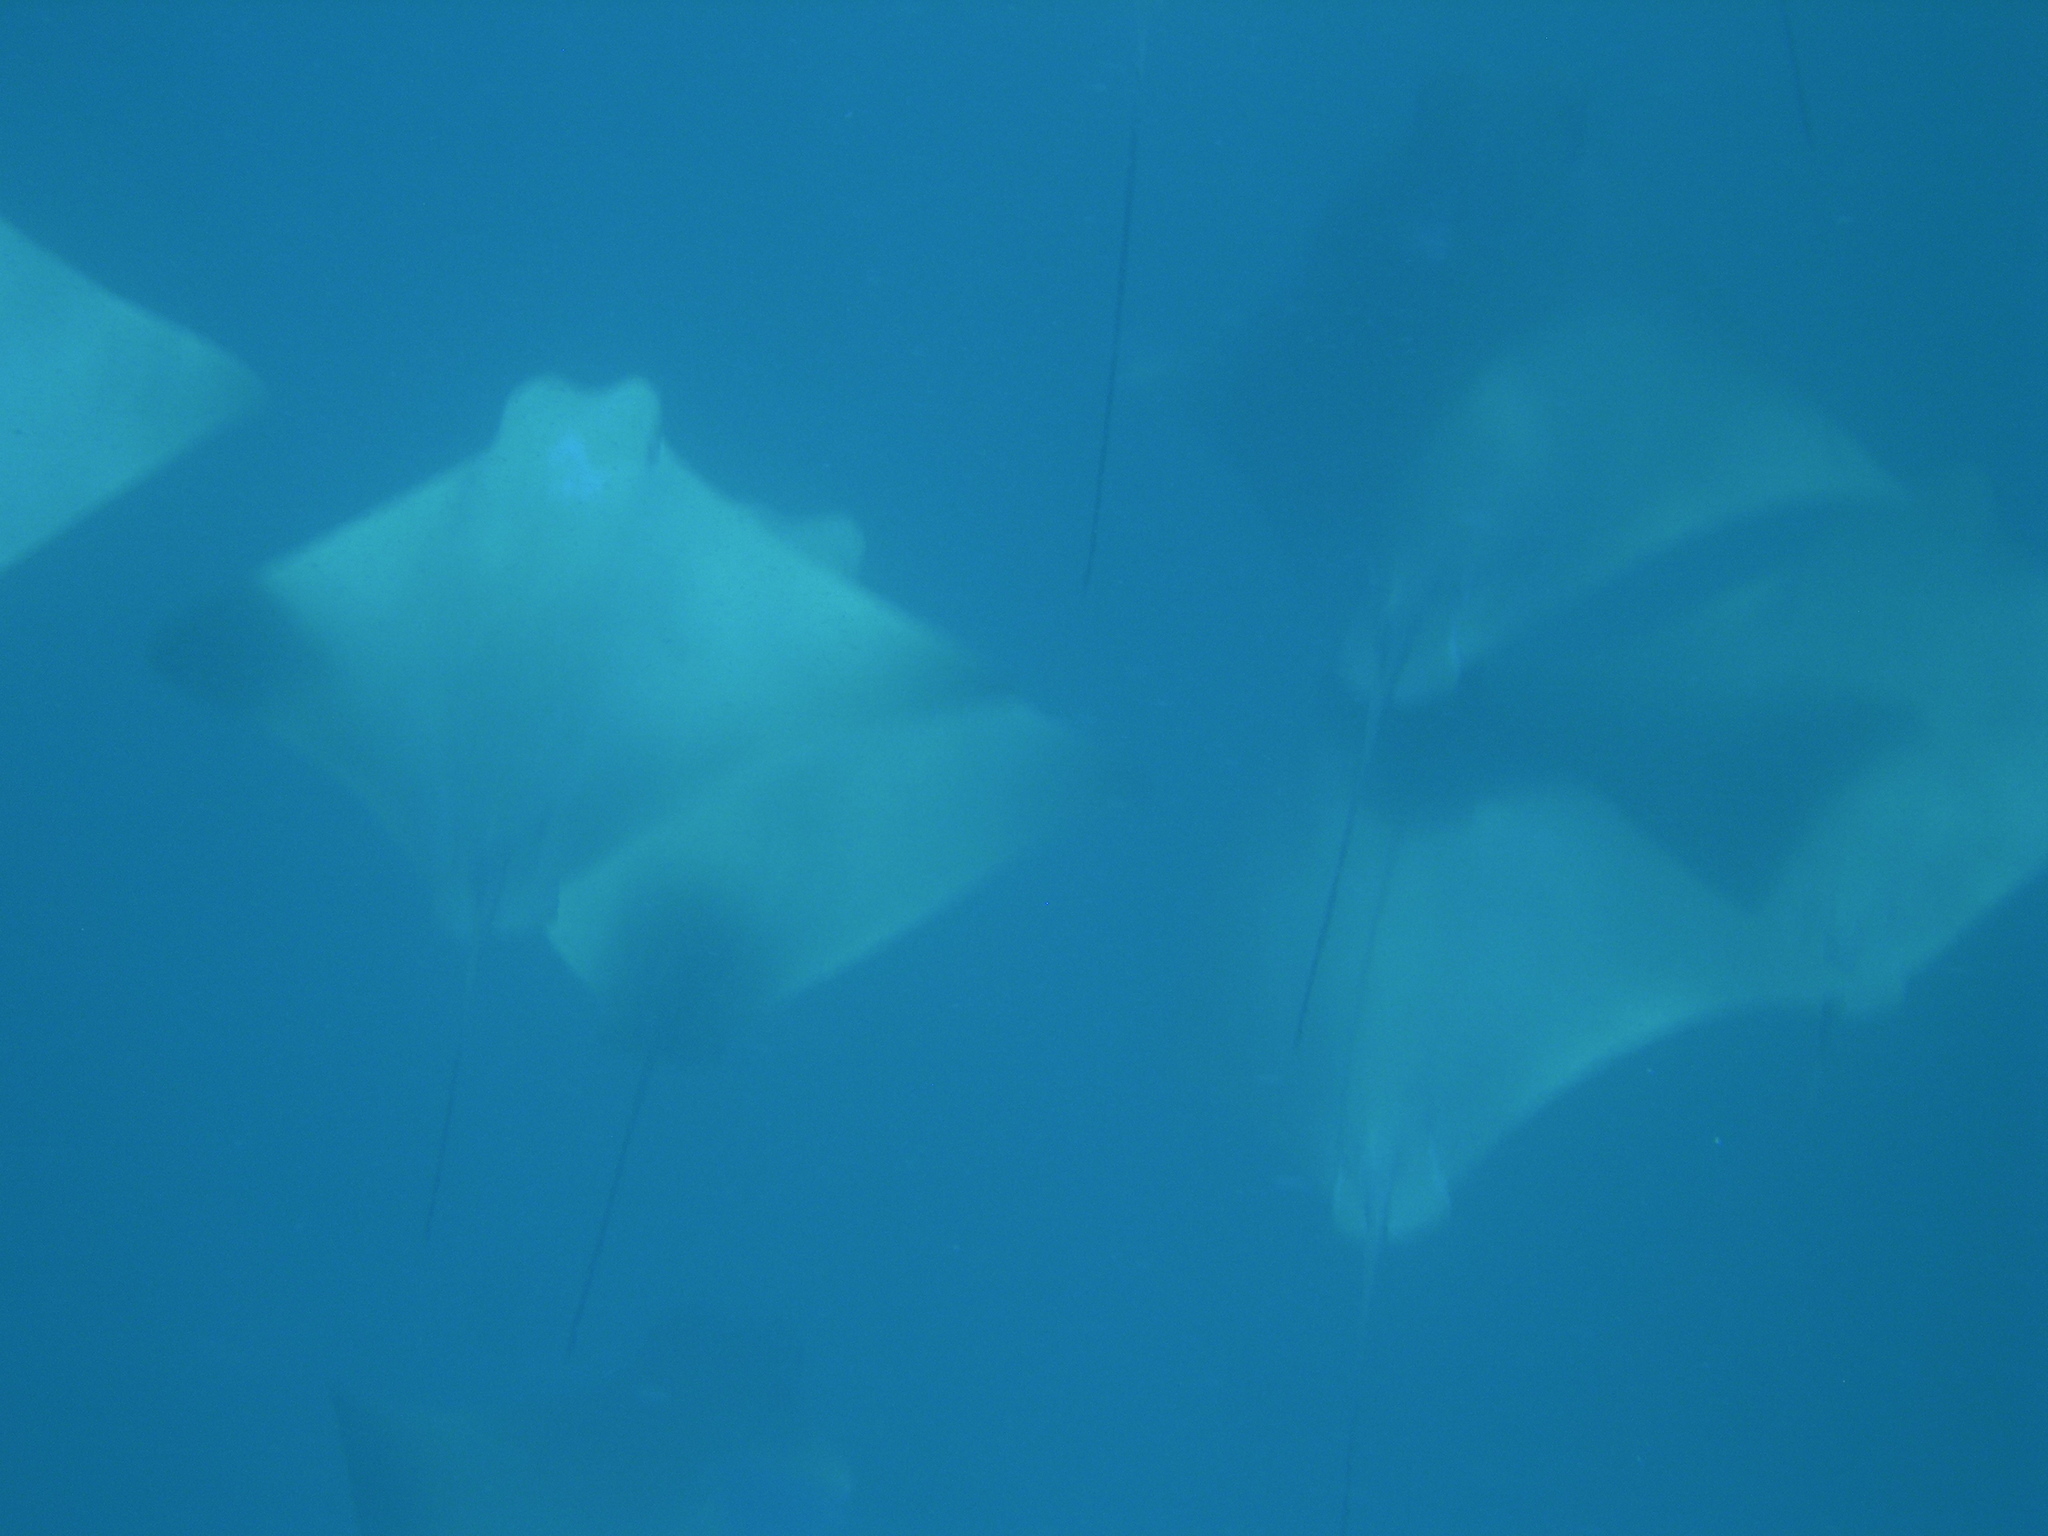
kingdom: Animalia
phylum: Chordata
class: Elasmobranchii
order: Myliobatiformes
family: Myliobatidae
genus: Rhinoptera
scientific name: Rhinoptera brasiliensis
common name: Brazilian cownose ray
